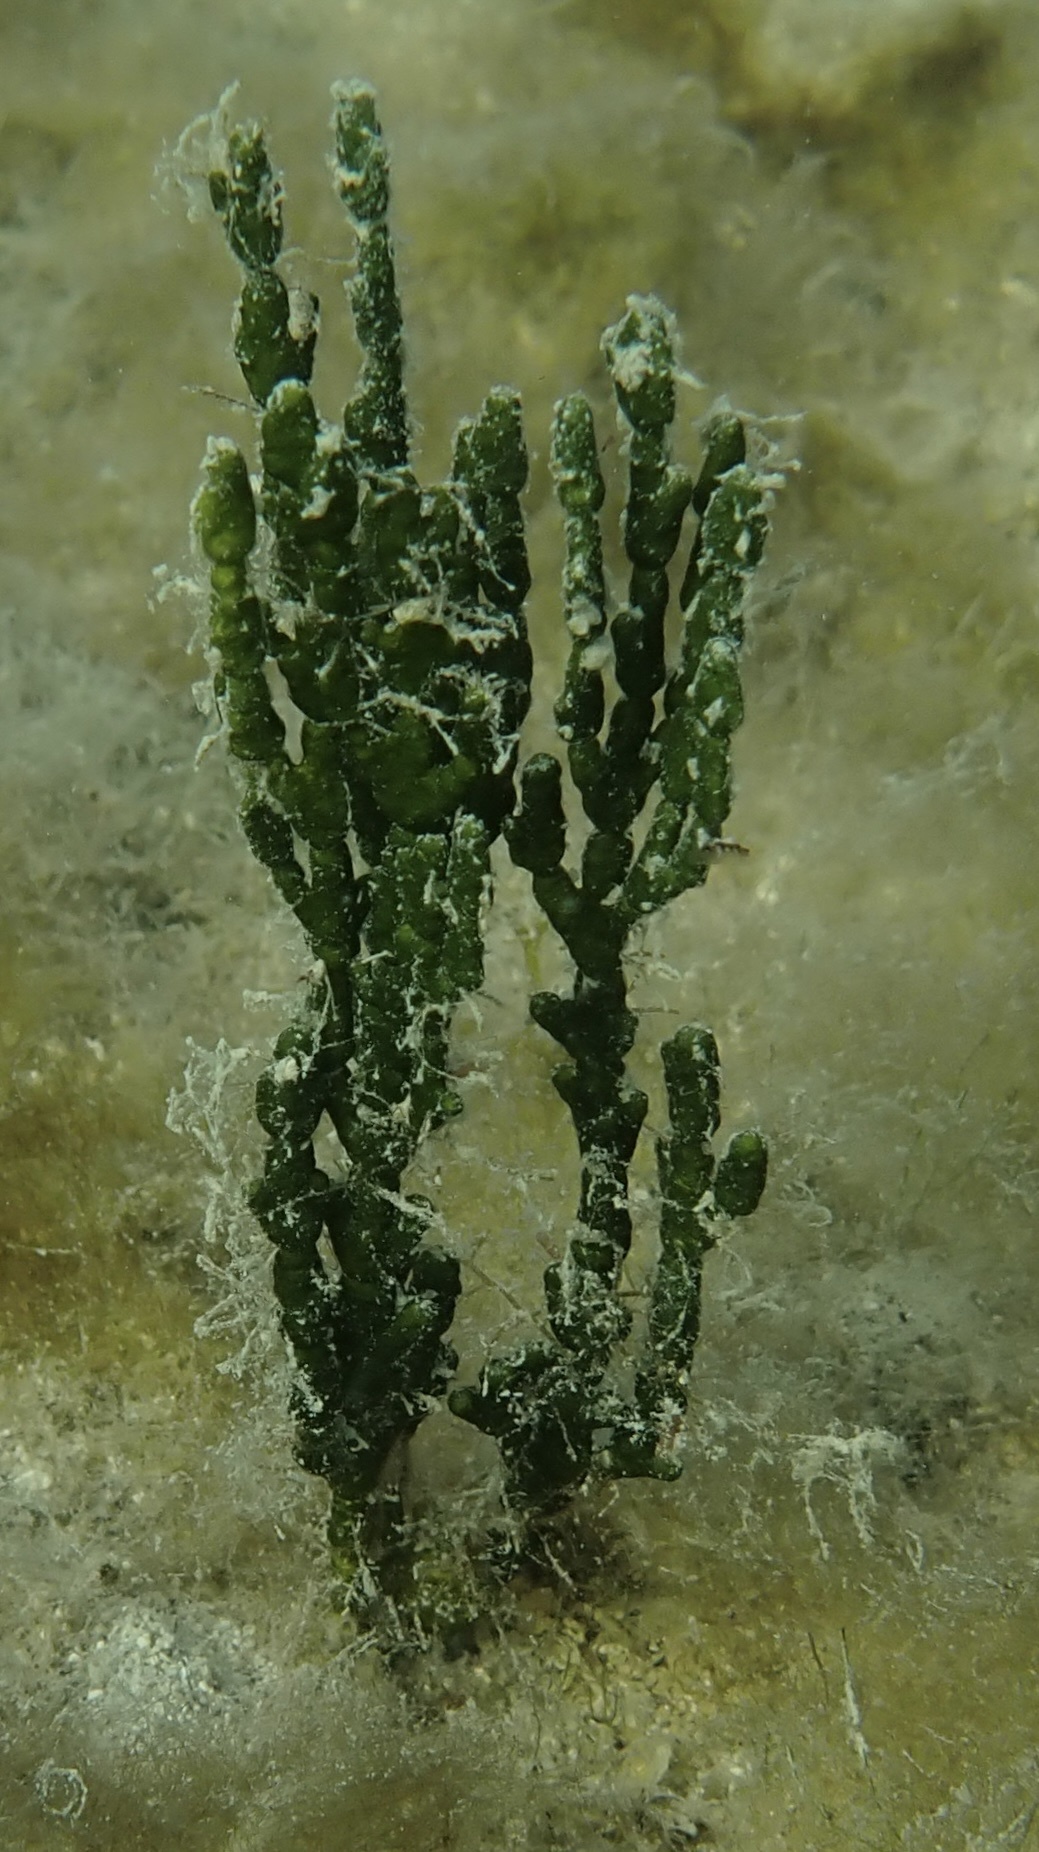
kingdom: Plantae
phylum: Chlorophyta
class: Ulvophyceae
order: Bryopsidales
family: Halimedaceae
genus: Halimeda
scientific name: Halimeda monile
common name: Green jointed-stalk algae
